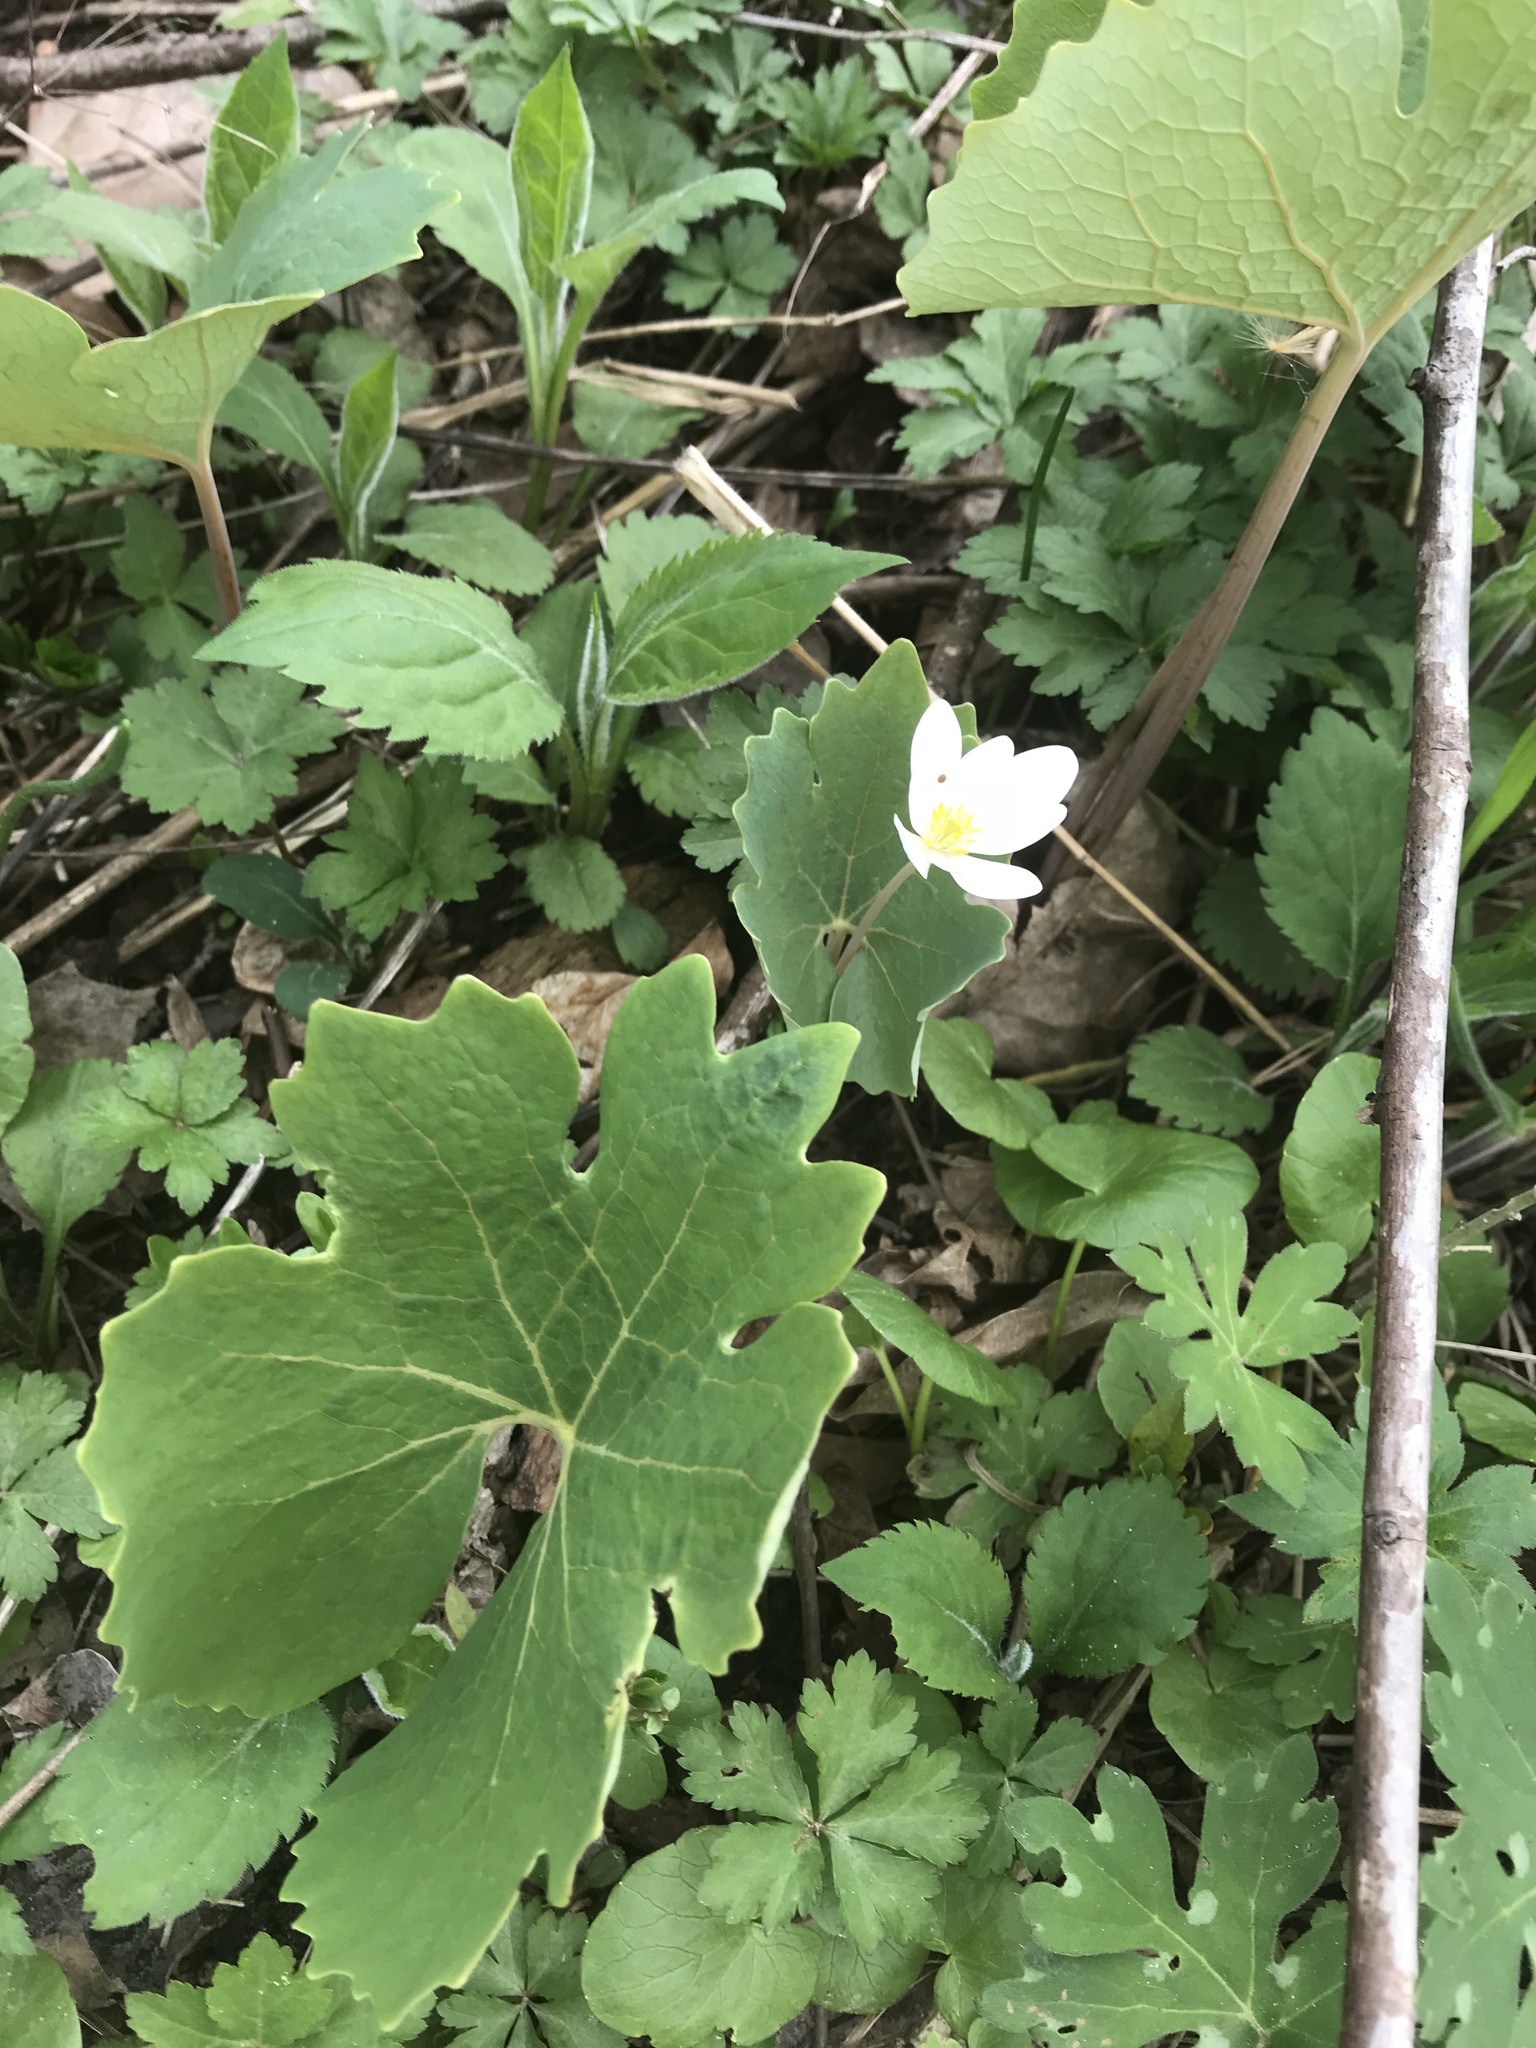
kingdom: Plantae
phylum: Tracheophyta
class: Magnoliopsida
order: Ranunculales
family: Papaveraceae
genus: Sanguinaria
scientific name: Sanguinaria canadensis
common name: Bloodroot
